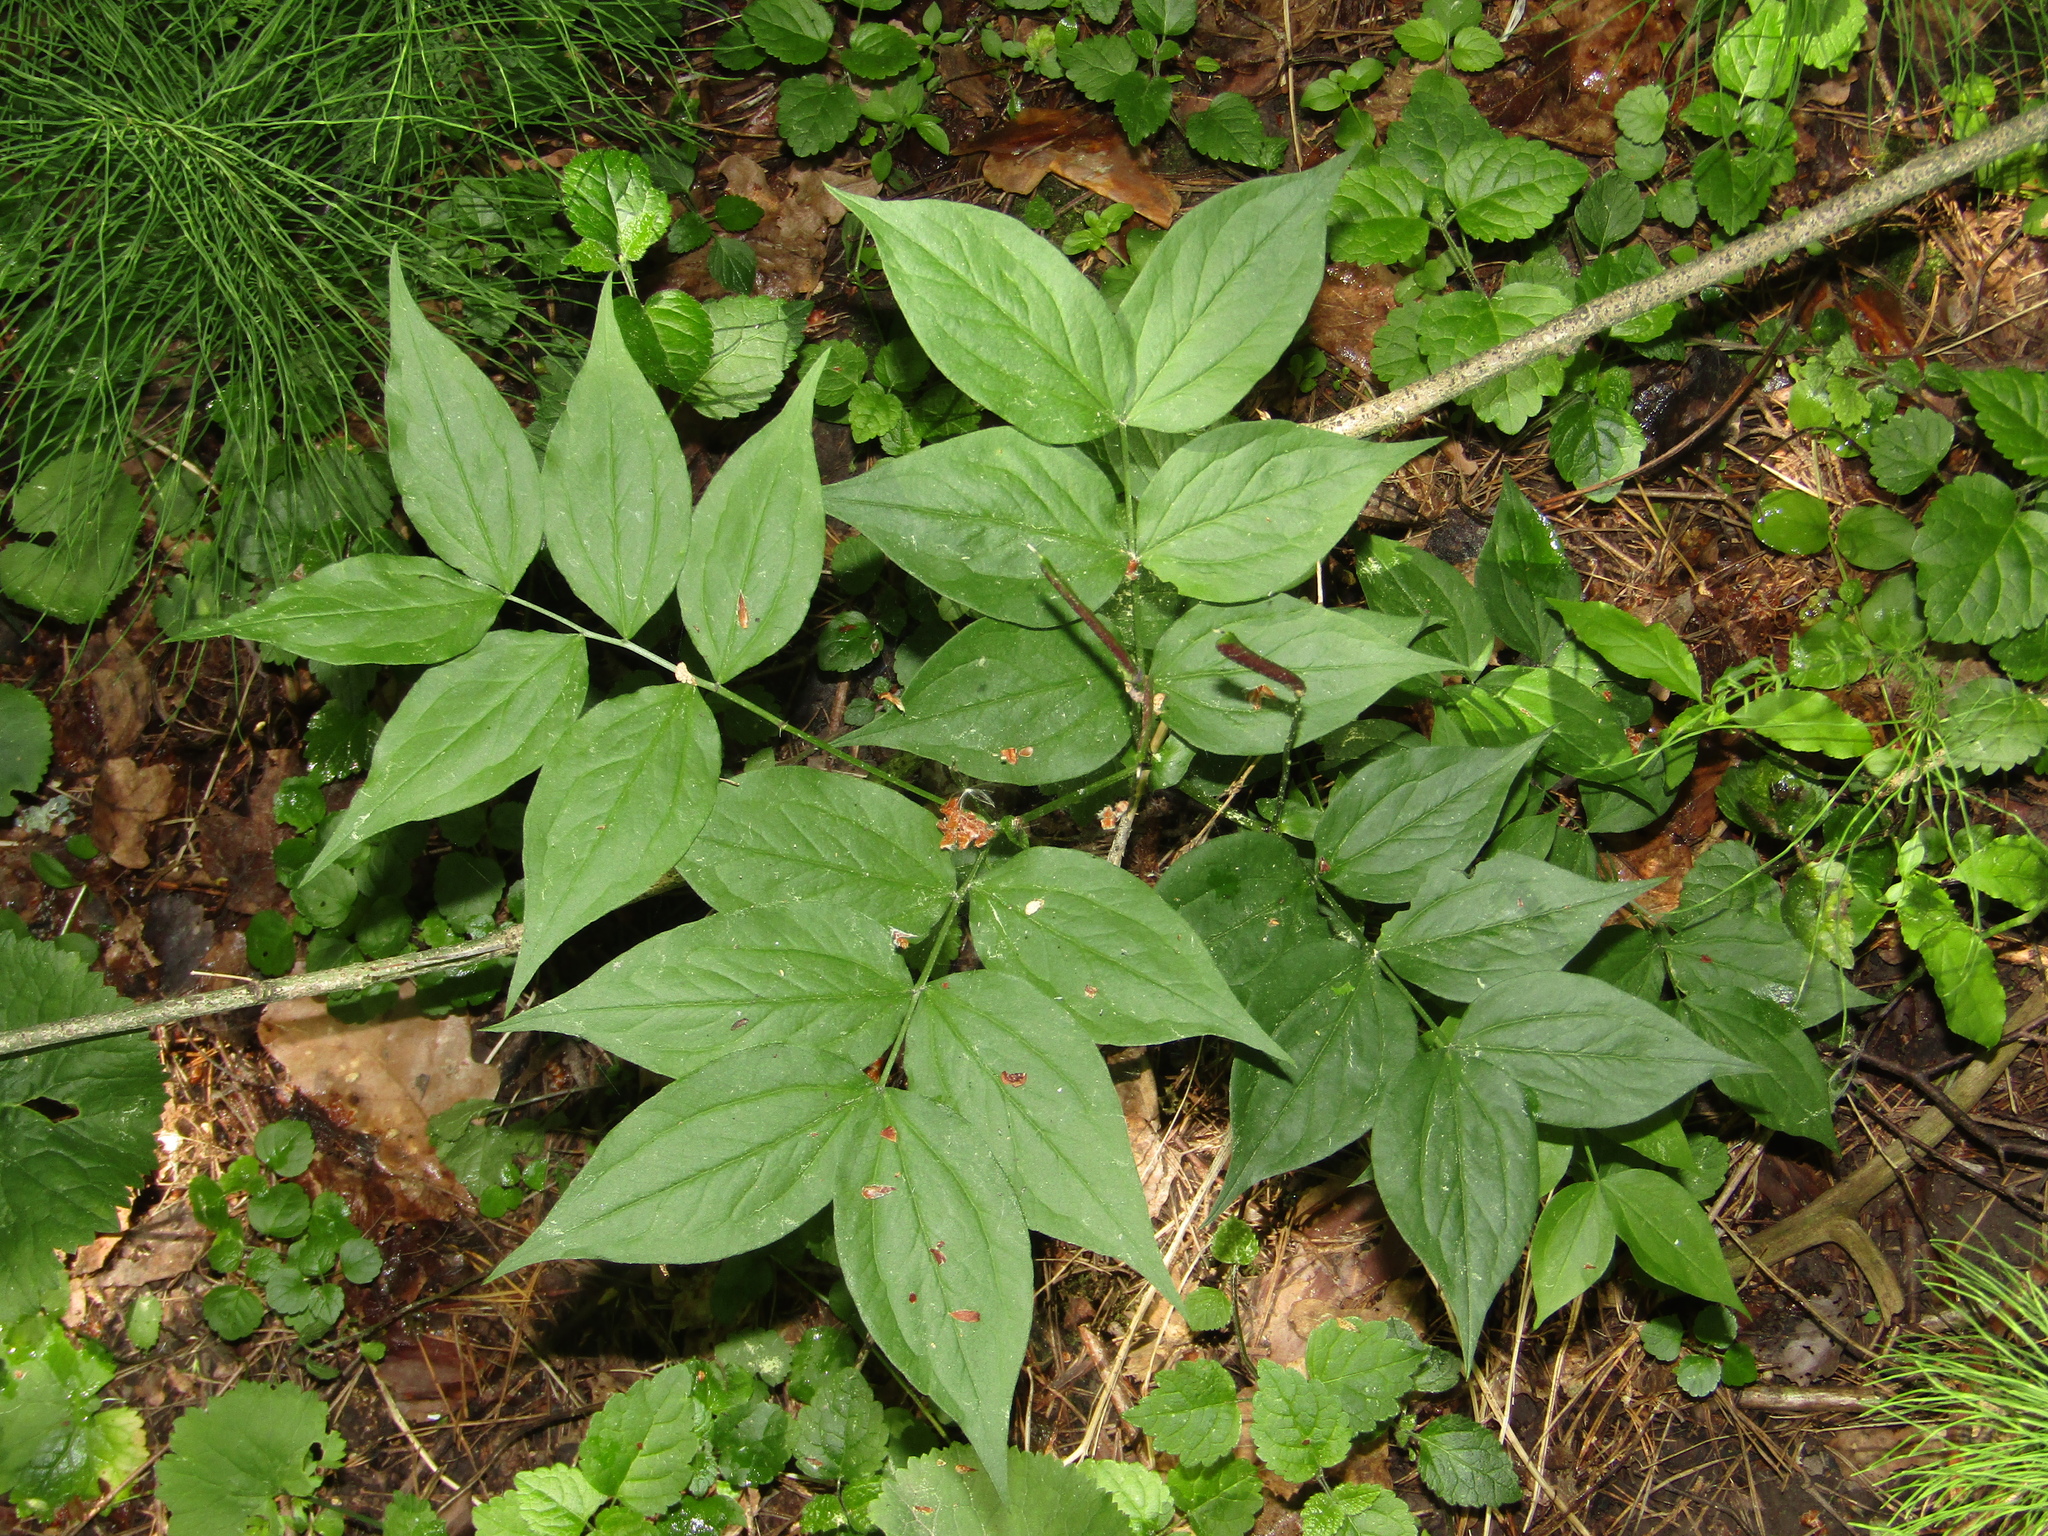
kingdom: Plantae
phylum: Tracheophyta
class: Magnoliopsida
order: Fabales
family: Fabaceae
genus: Lathyrus
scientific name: Lathyrus vernus
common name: Spring pea
